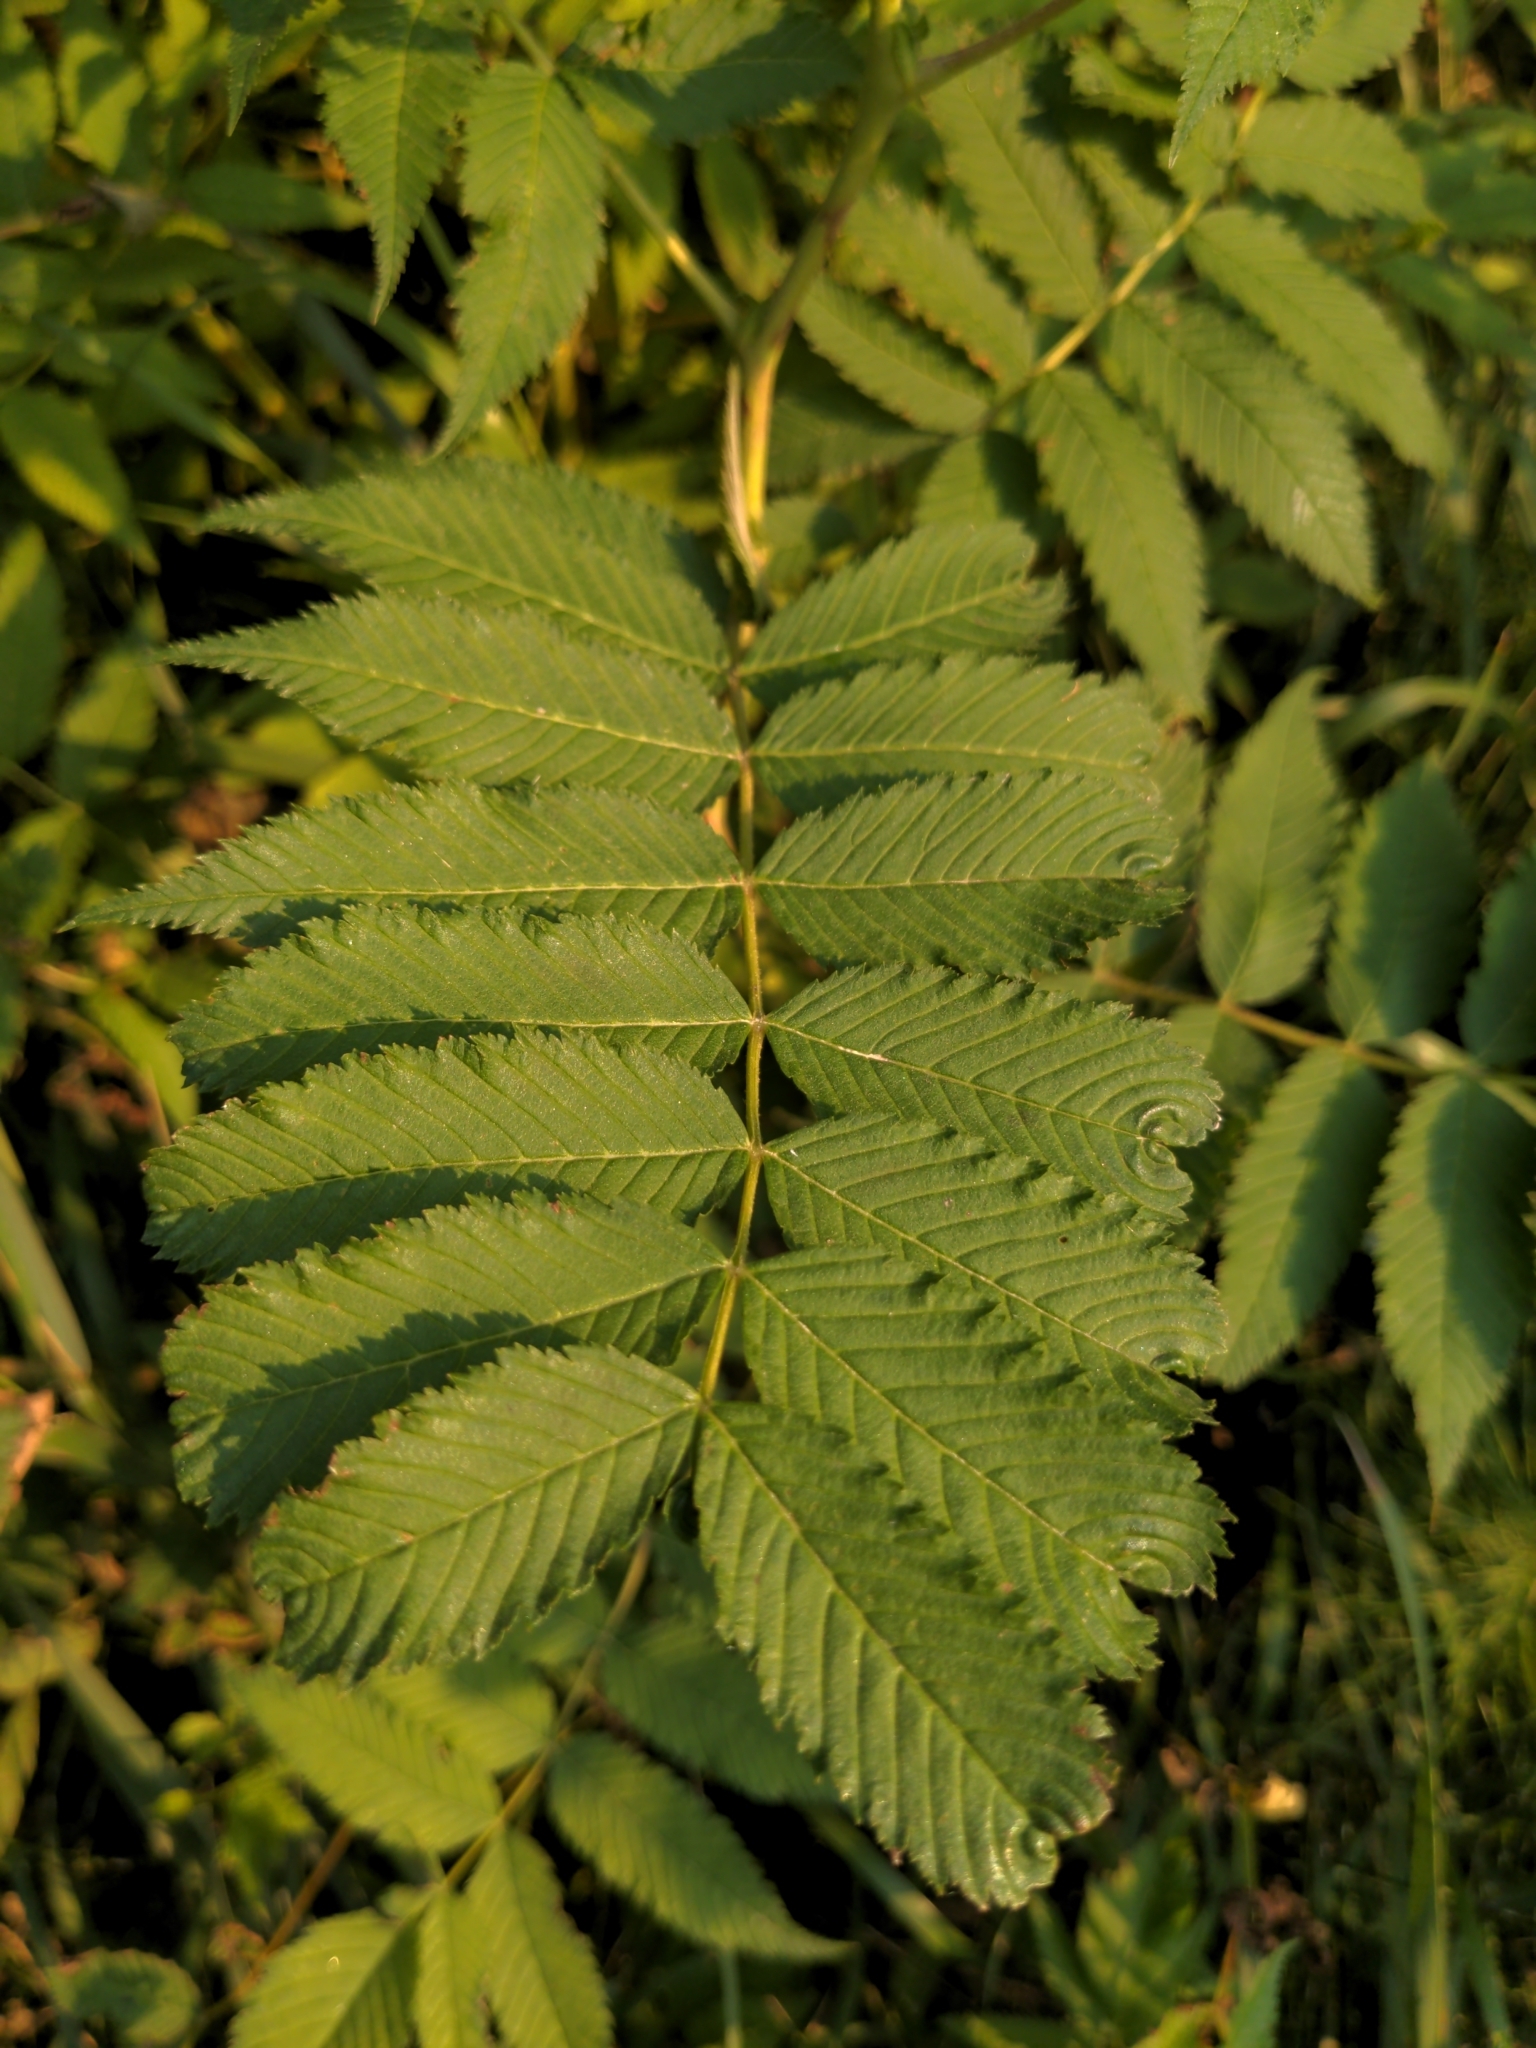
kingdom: Plantae
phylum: Tracheophyta
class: Magnoliopsida
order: Rosales
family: Rosaceae
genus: Sorbaria
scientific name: Sorbaria sorbifolia
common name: False spiraea
